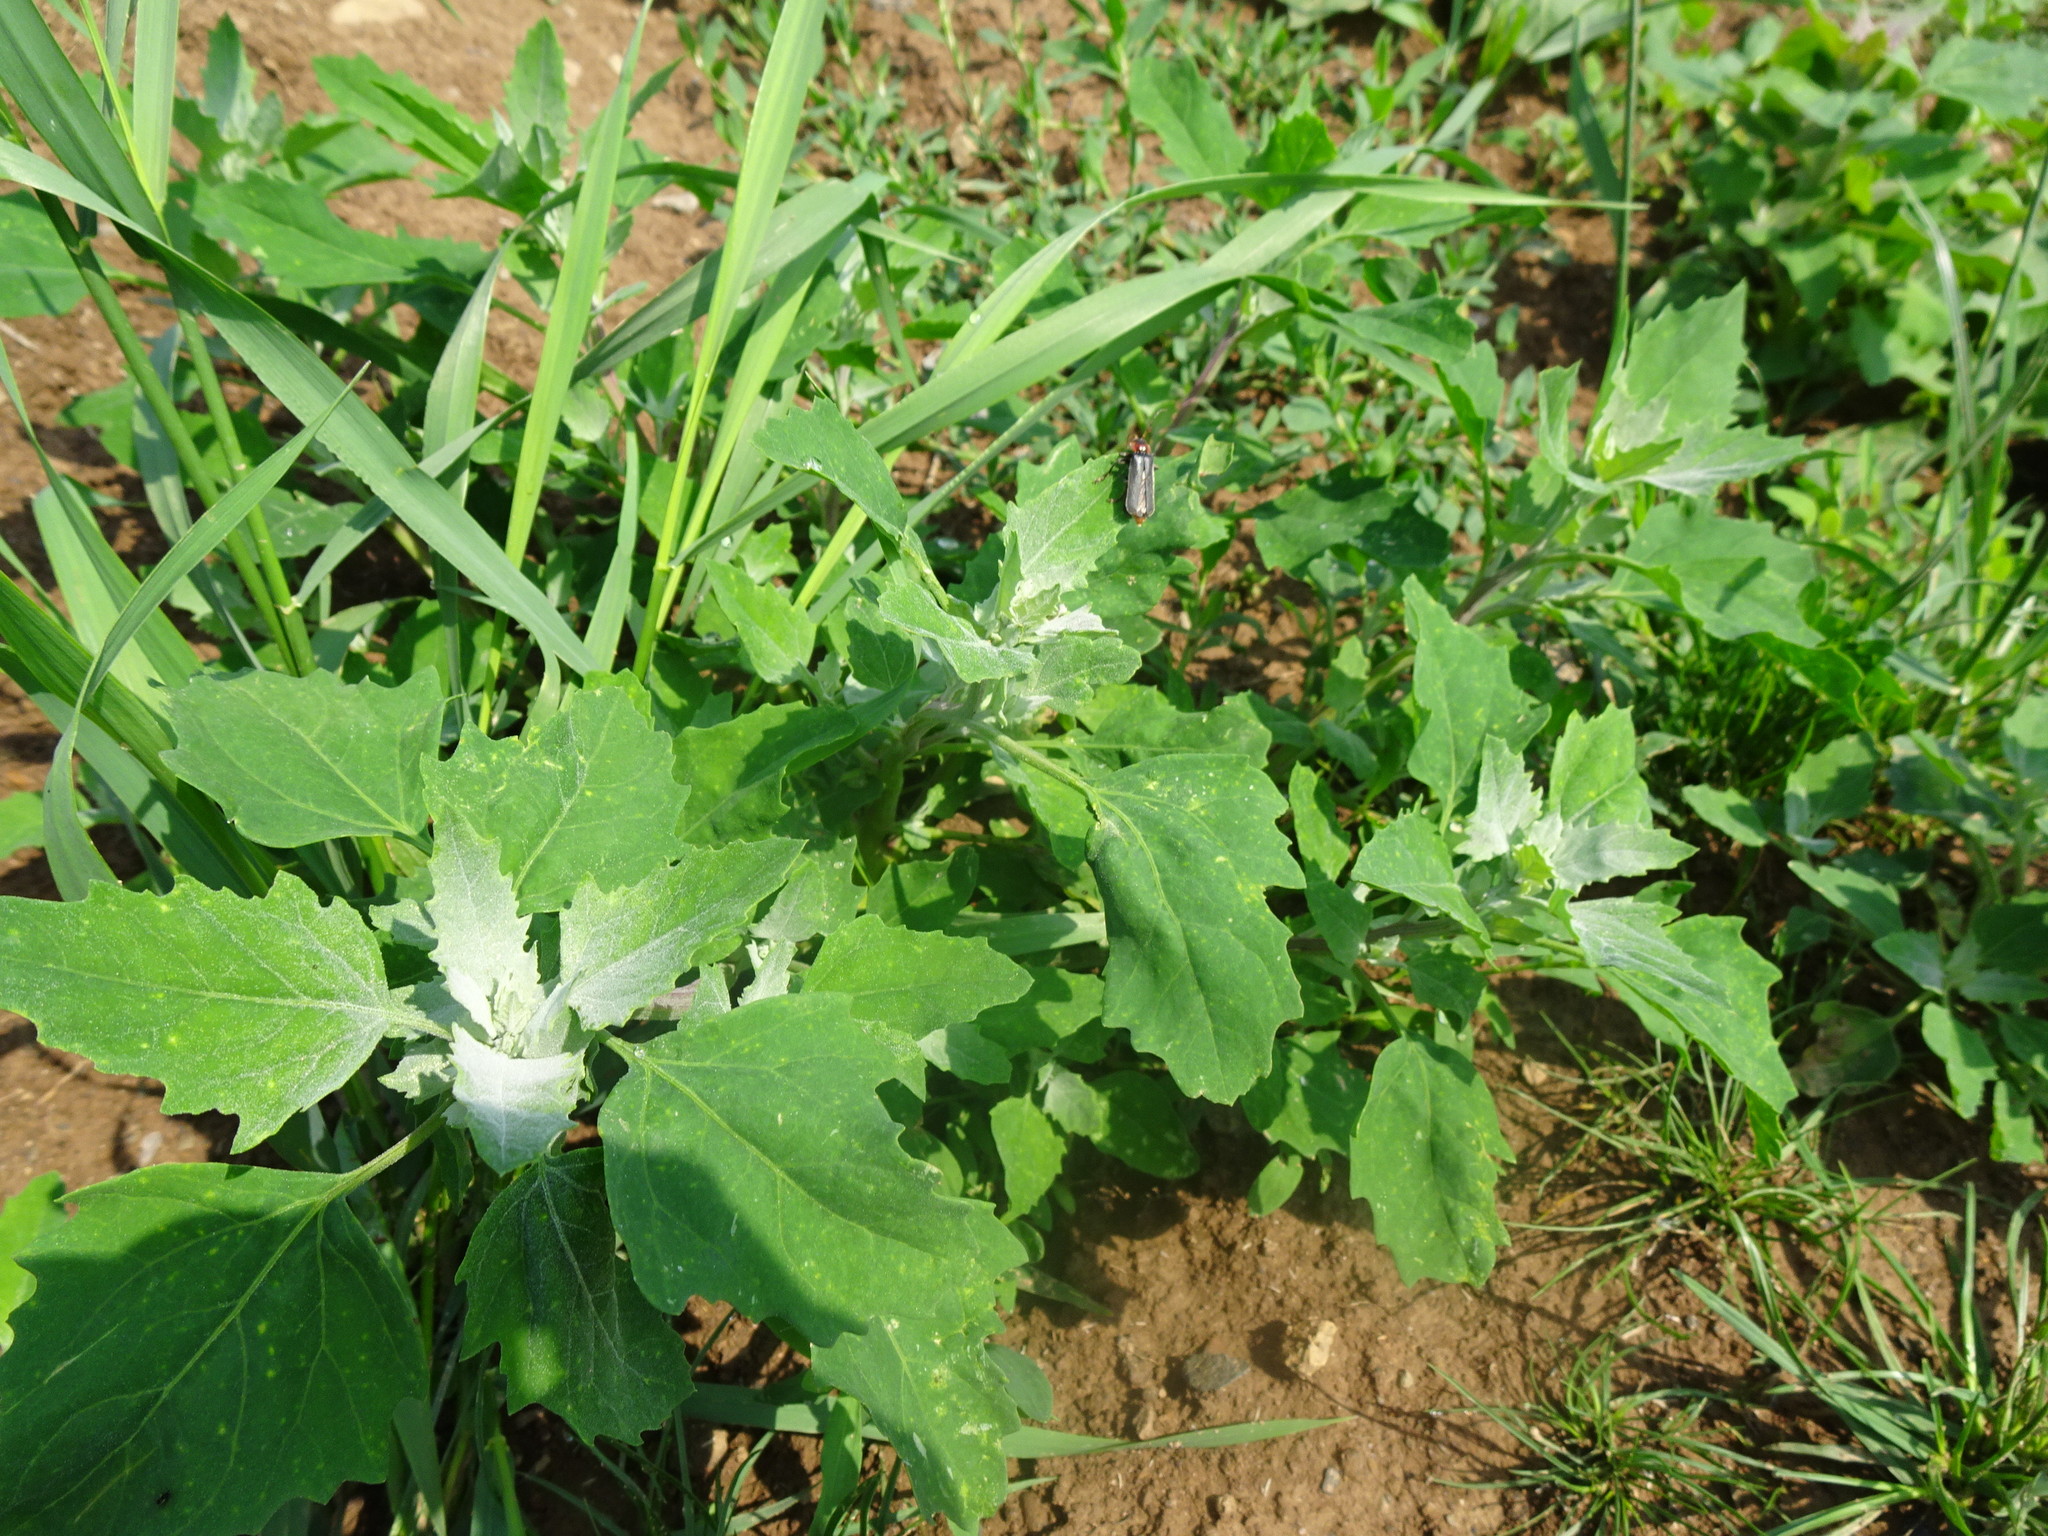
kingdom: Plantae
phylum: Tracheophyta
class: Magnoliopsida
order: Caryophyllales
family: Amaranthaceae
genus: Chenopodium
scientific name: Chenopodium album
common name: Fat-hen
